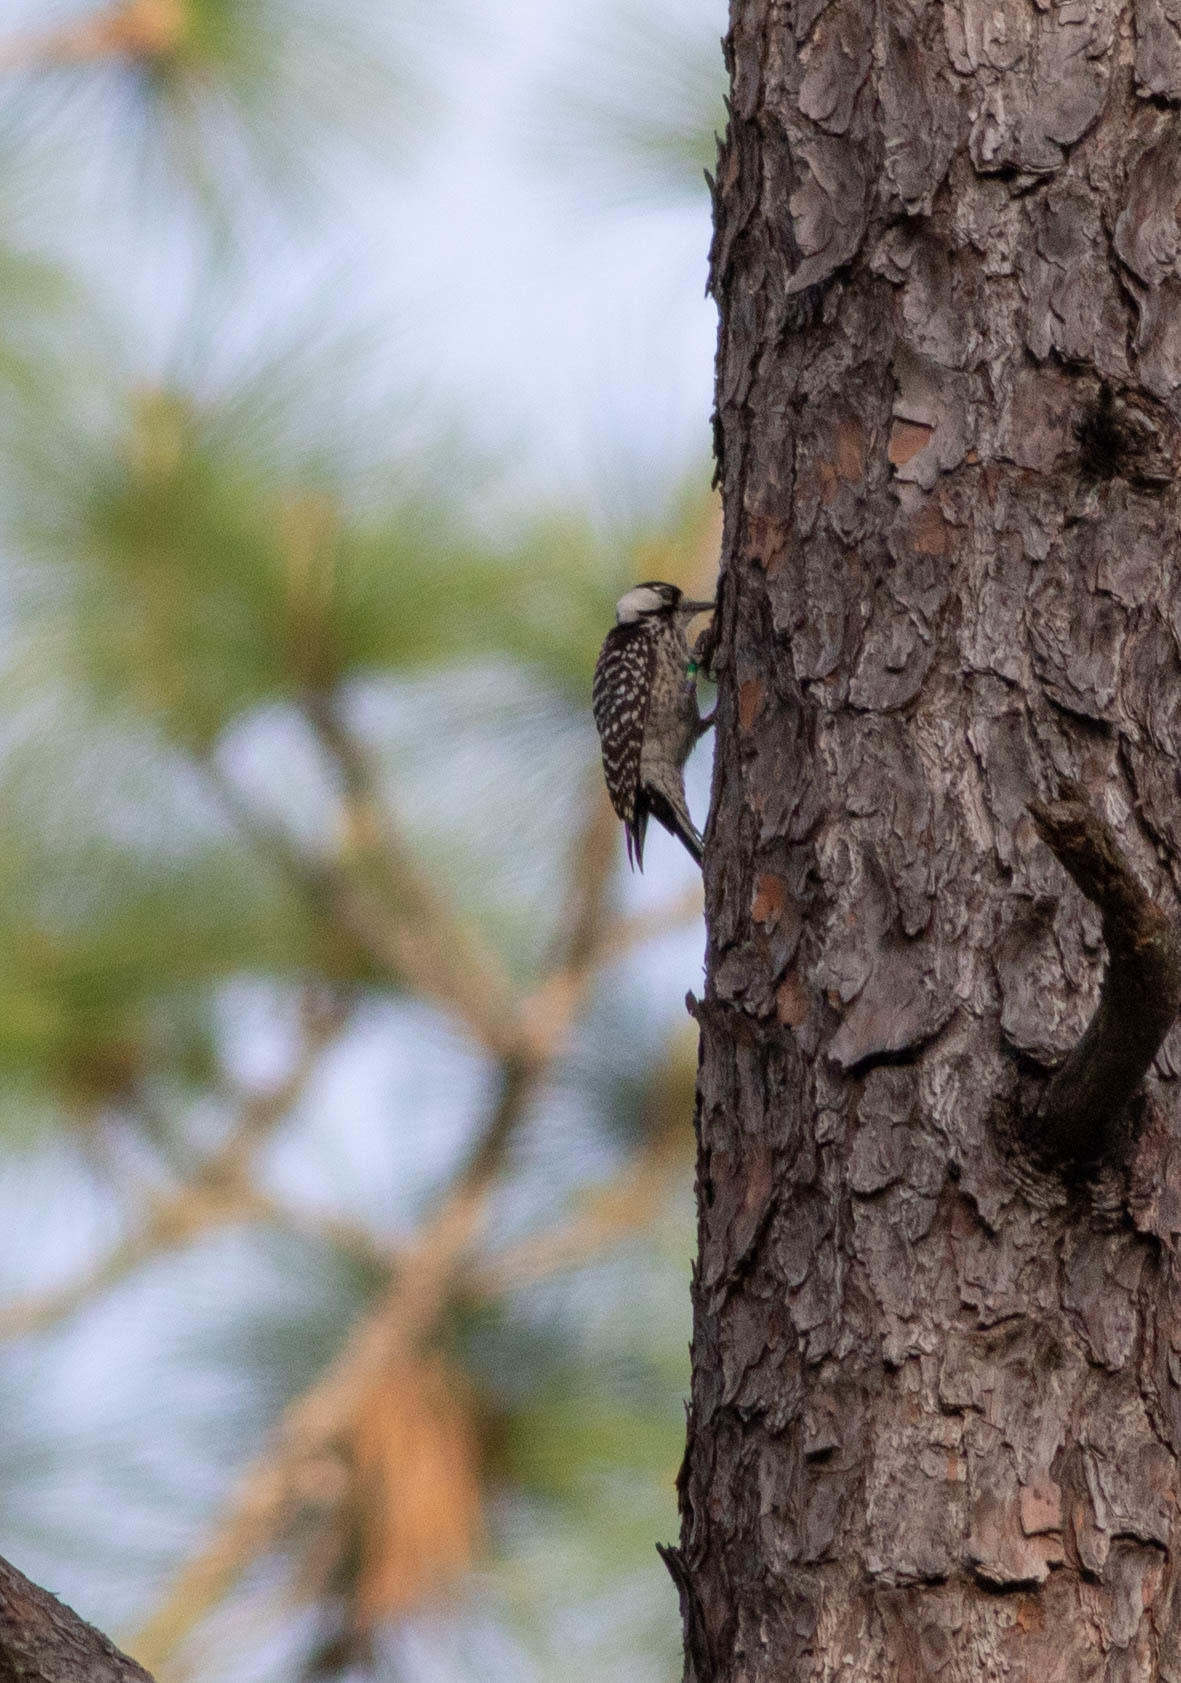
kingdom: Animalia
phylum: Chordata
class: Aves
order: Piciformes
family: Picidae
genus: Leuconotopicus
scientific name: Leuconotopicus borealis
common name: Red-cockaded woodpecker
